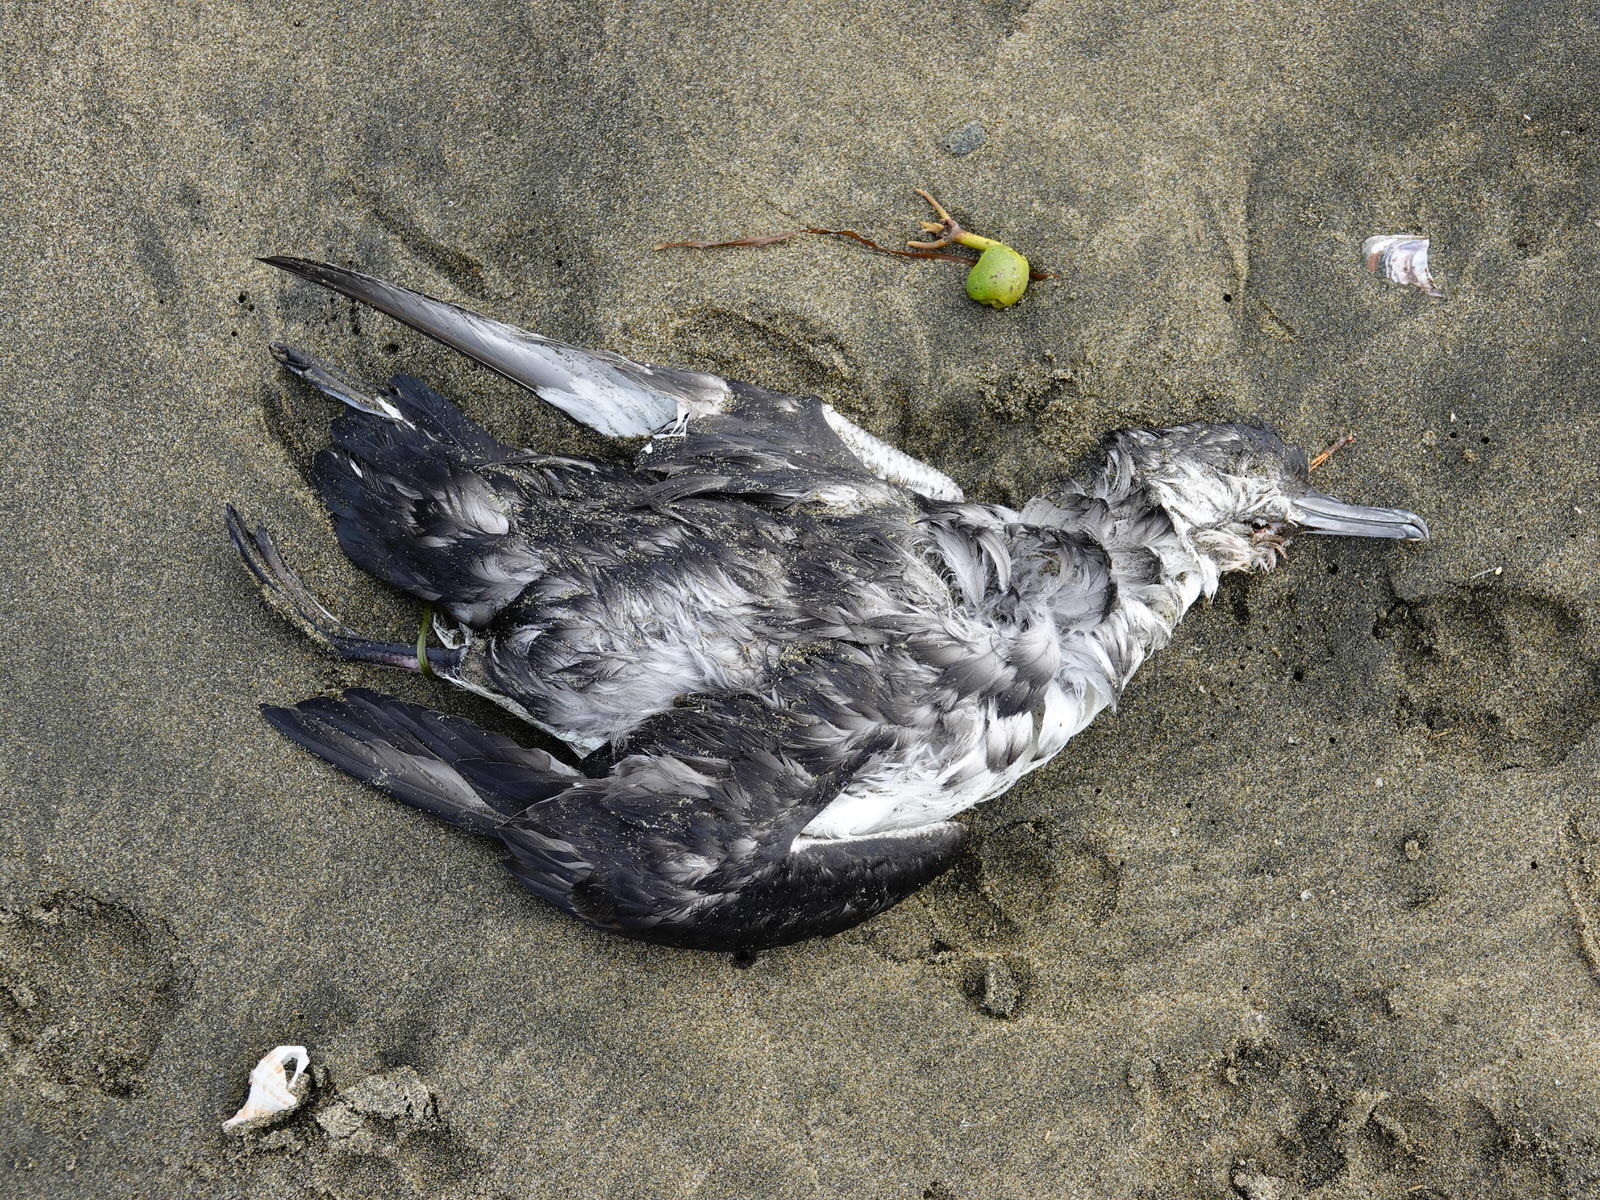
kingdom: Animalia
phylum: Chordata
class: Aves
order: Procellariiformes
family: Procellariidae
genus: Puffinus
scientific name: Puffinus bulleri
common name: Buller's shearwater
